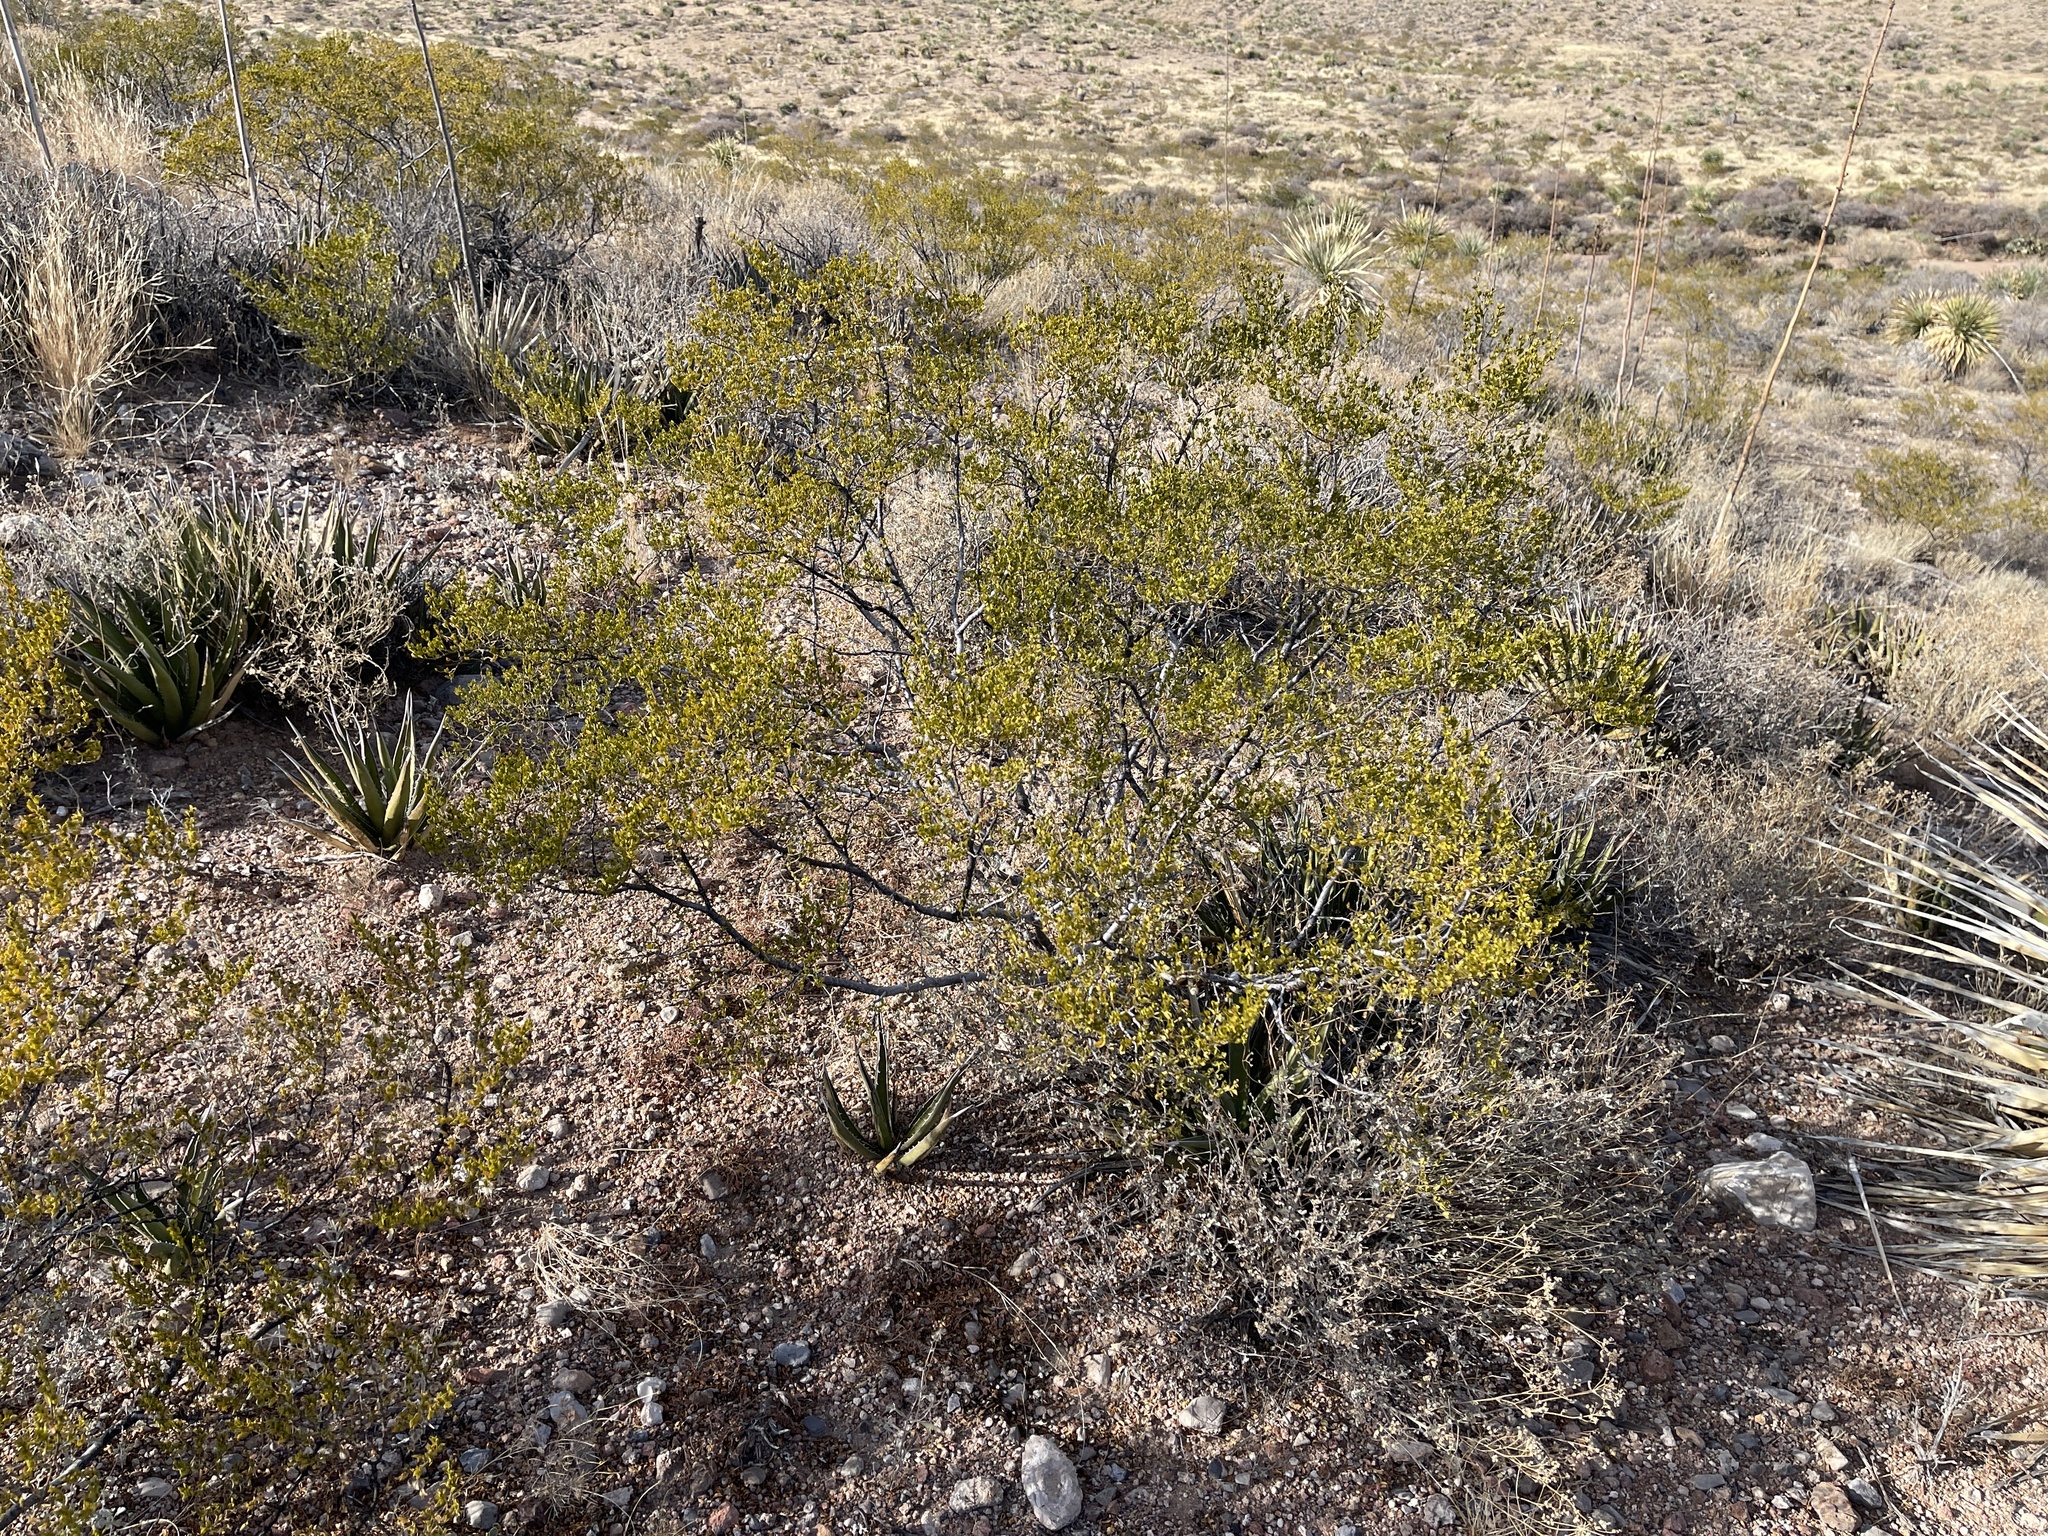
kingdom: Plantae
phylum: Tracheophyta
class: Magnoliopsida
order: Zygophyllales
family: Zygophyllaceae
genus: Larrea
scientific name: Larrea tridentata
